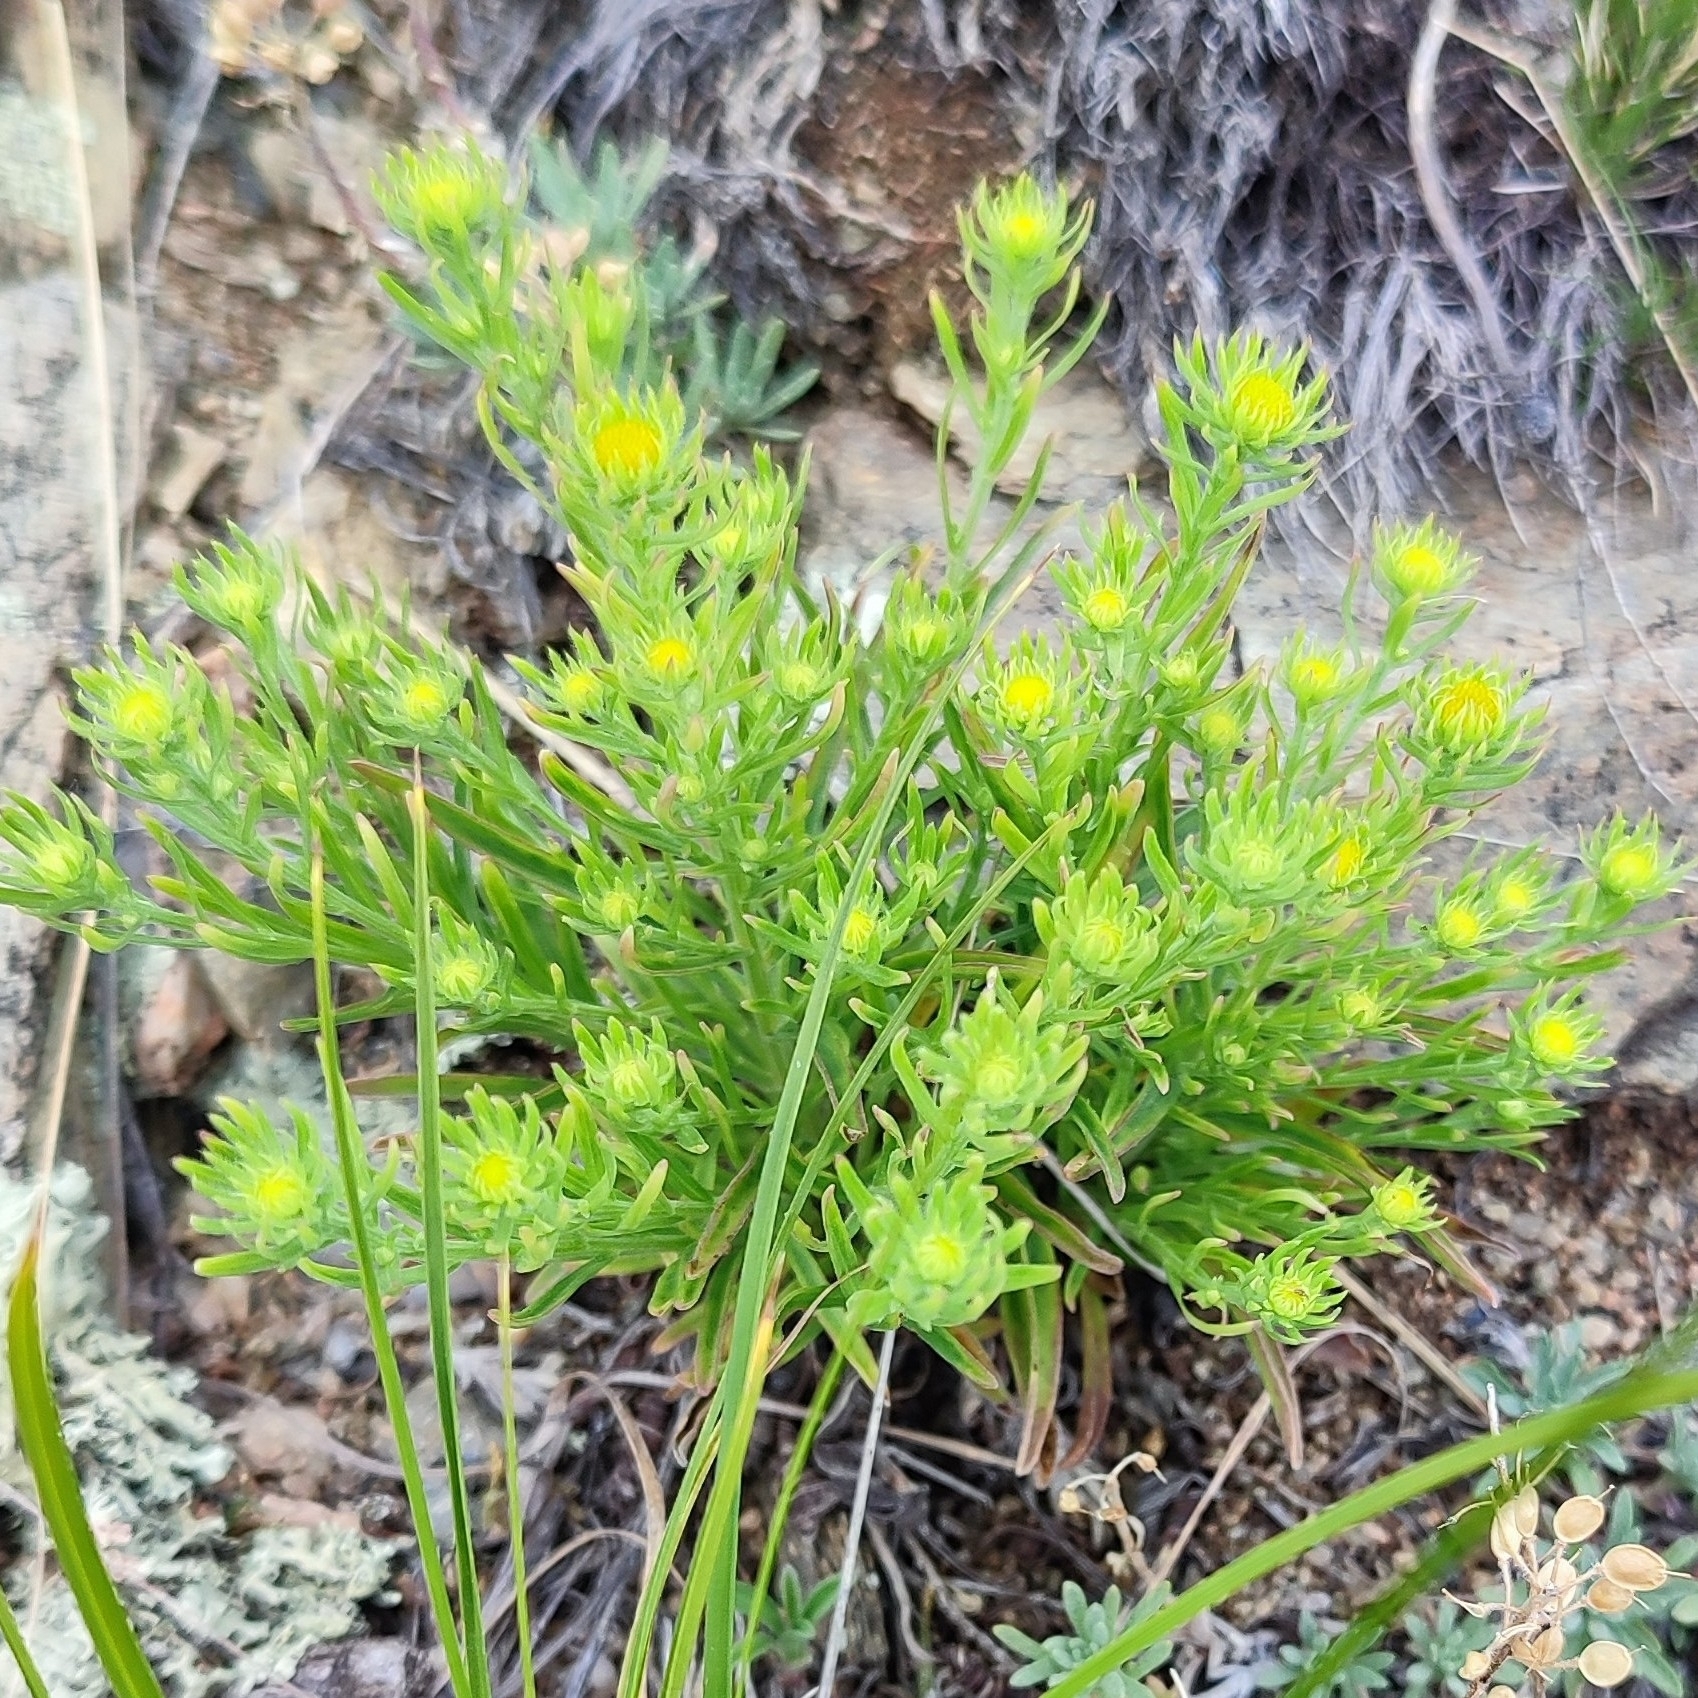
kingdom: Plantae
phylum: Tracheophyta
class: Magnoliopsida
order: Asterales
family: Asteraceae
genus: Heteropappus
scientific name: Heteropappus altaicus
